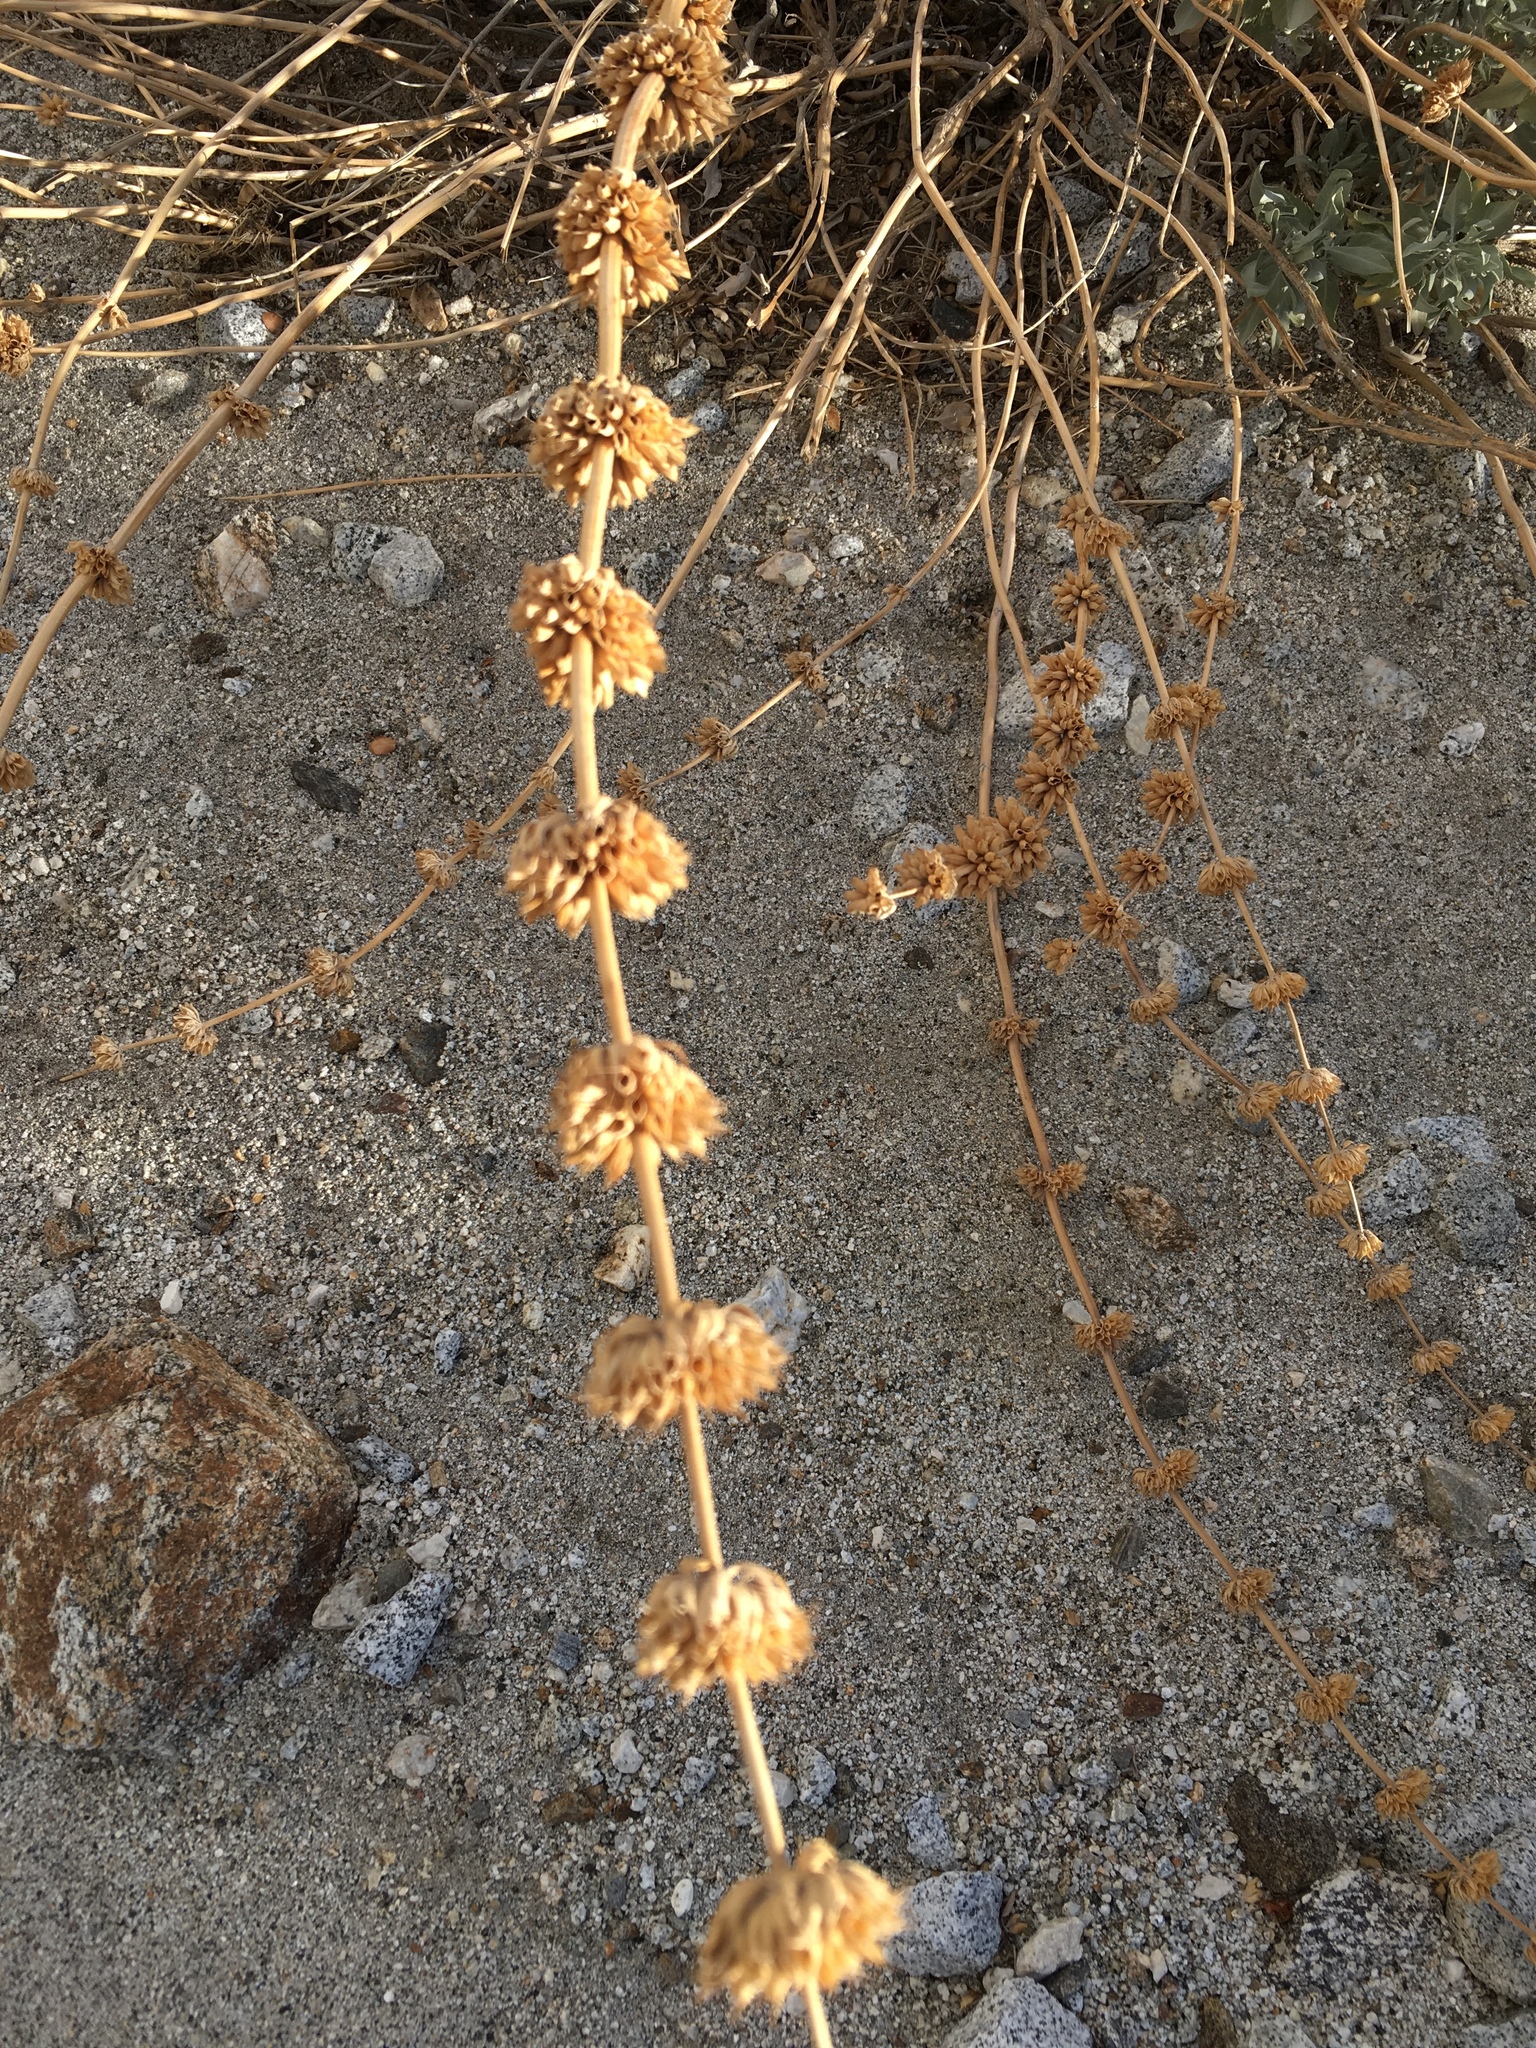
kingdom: Plantae
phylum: Tracheophyta
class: Magnoliopsida
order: Lamiales
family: Lamiaceae
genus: Salvia
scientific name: Salvia vaseyi
